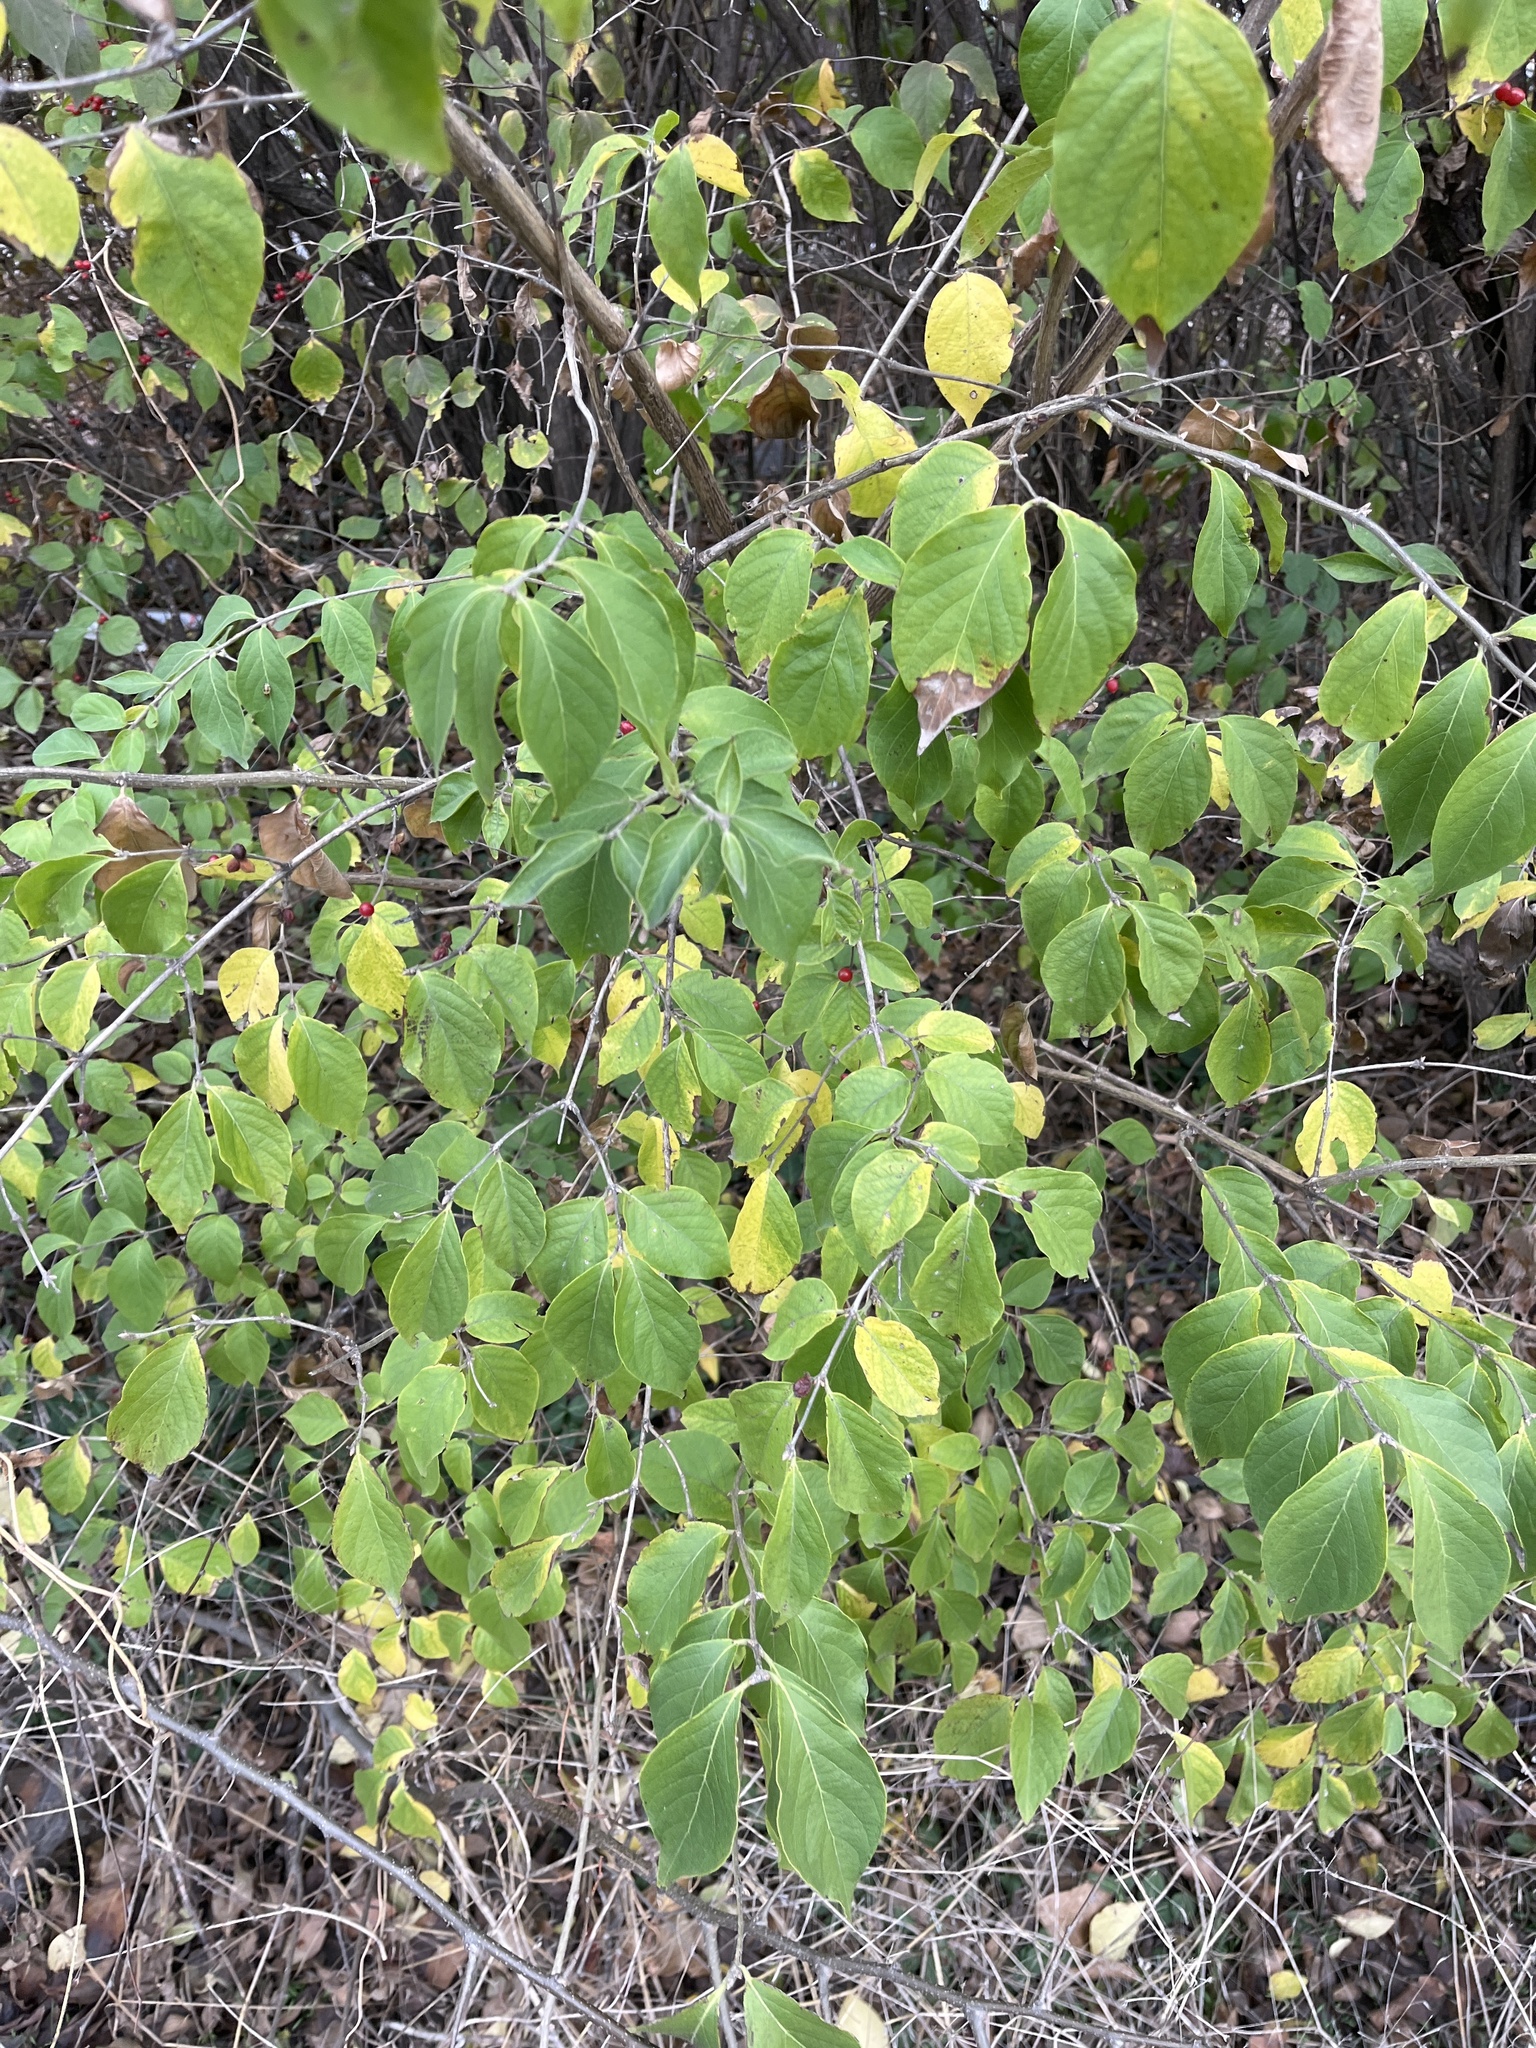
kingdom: Plantae
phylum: Tracheophyta
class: Magnoliopsida
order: Dipsacales
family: Caprifoliaceae
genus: Lonicera
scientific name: Lonicera maackii
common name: Amur honeysuckle
